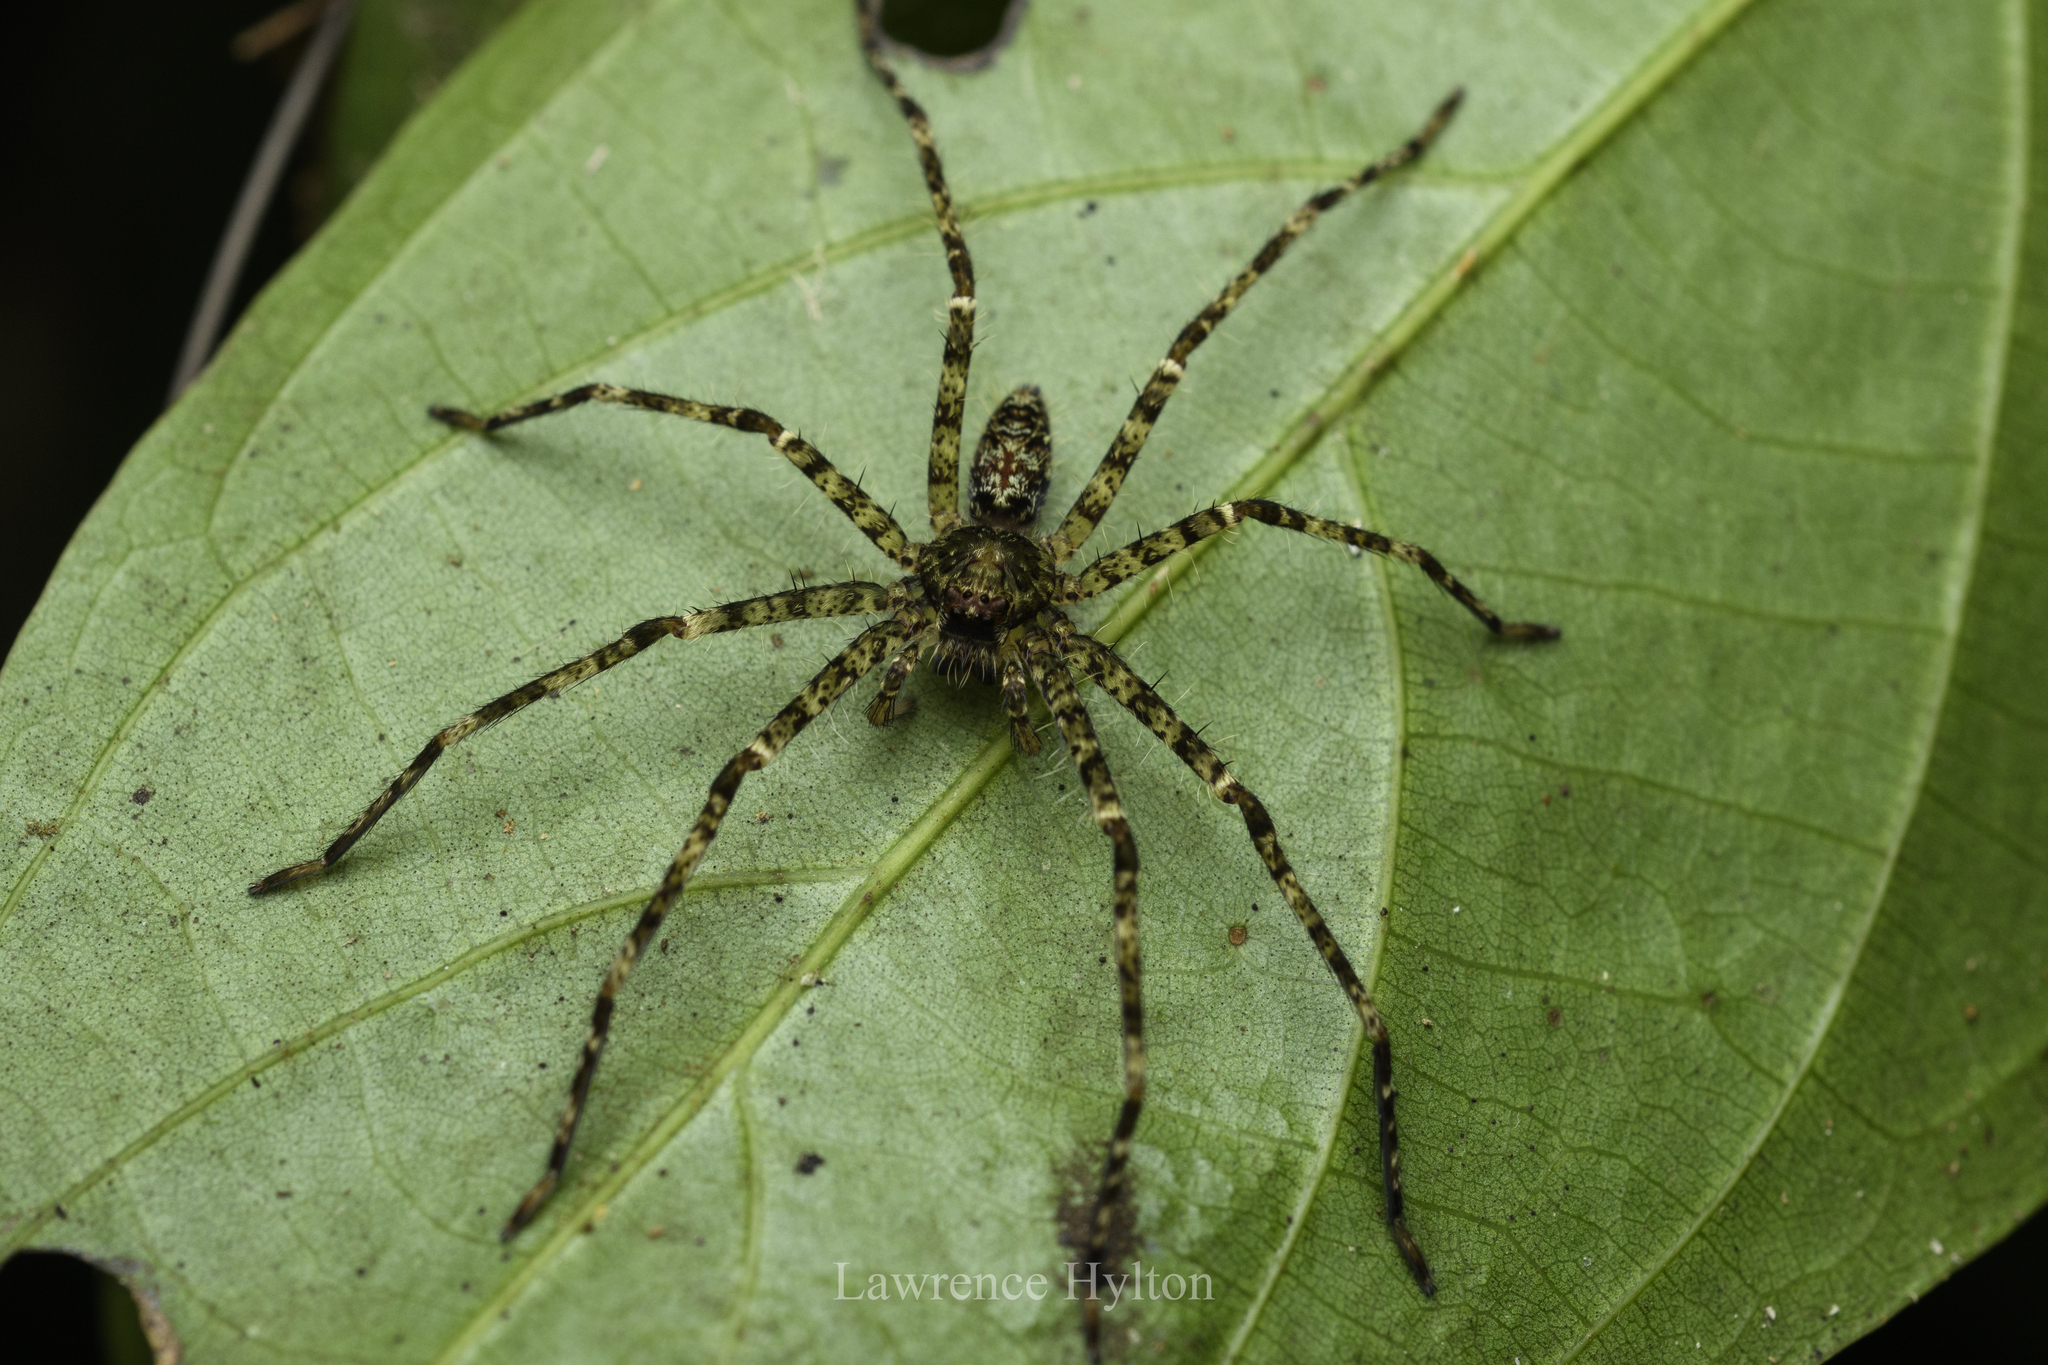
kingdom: Animalia
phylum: Arthropoda
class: Arachnida
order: Araneae
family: Sparassidae
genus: Heteropoda
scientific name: Heteropoda boiei
